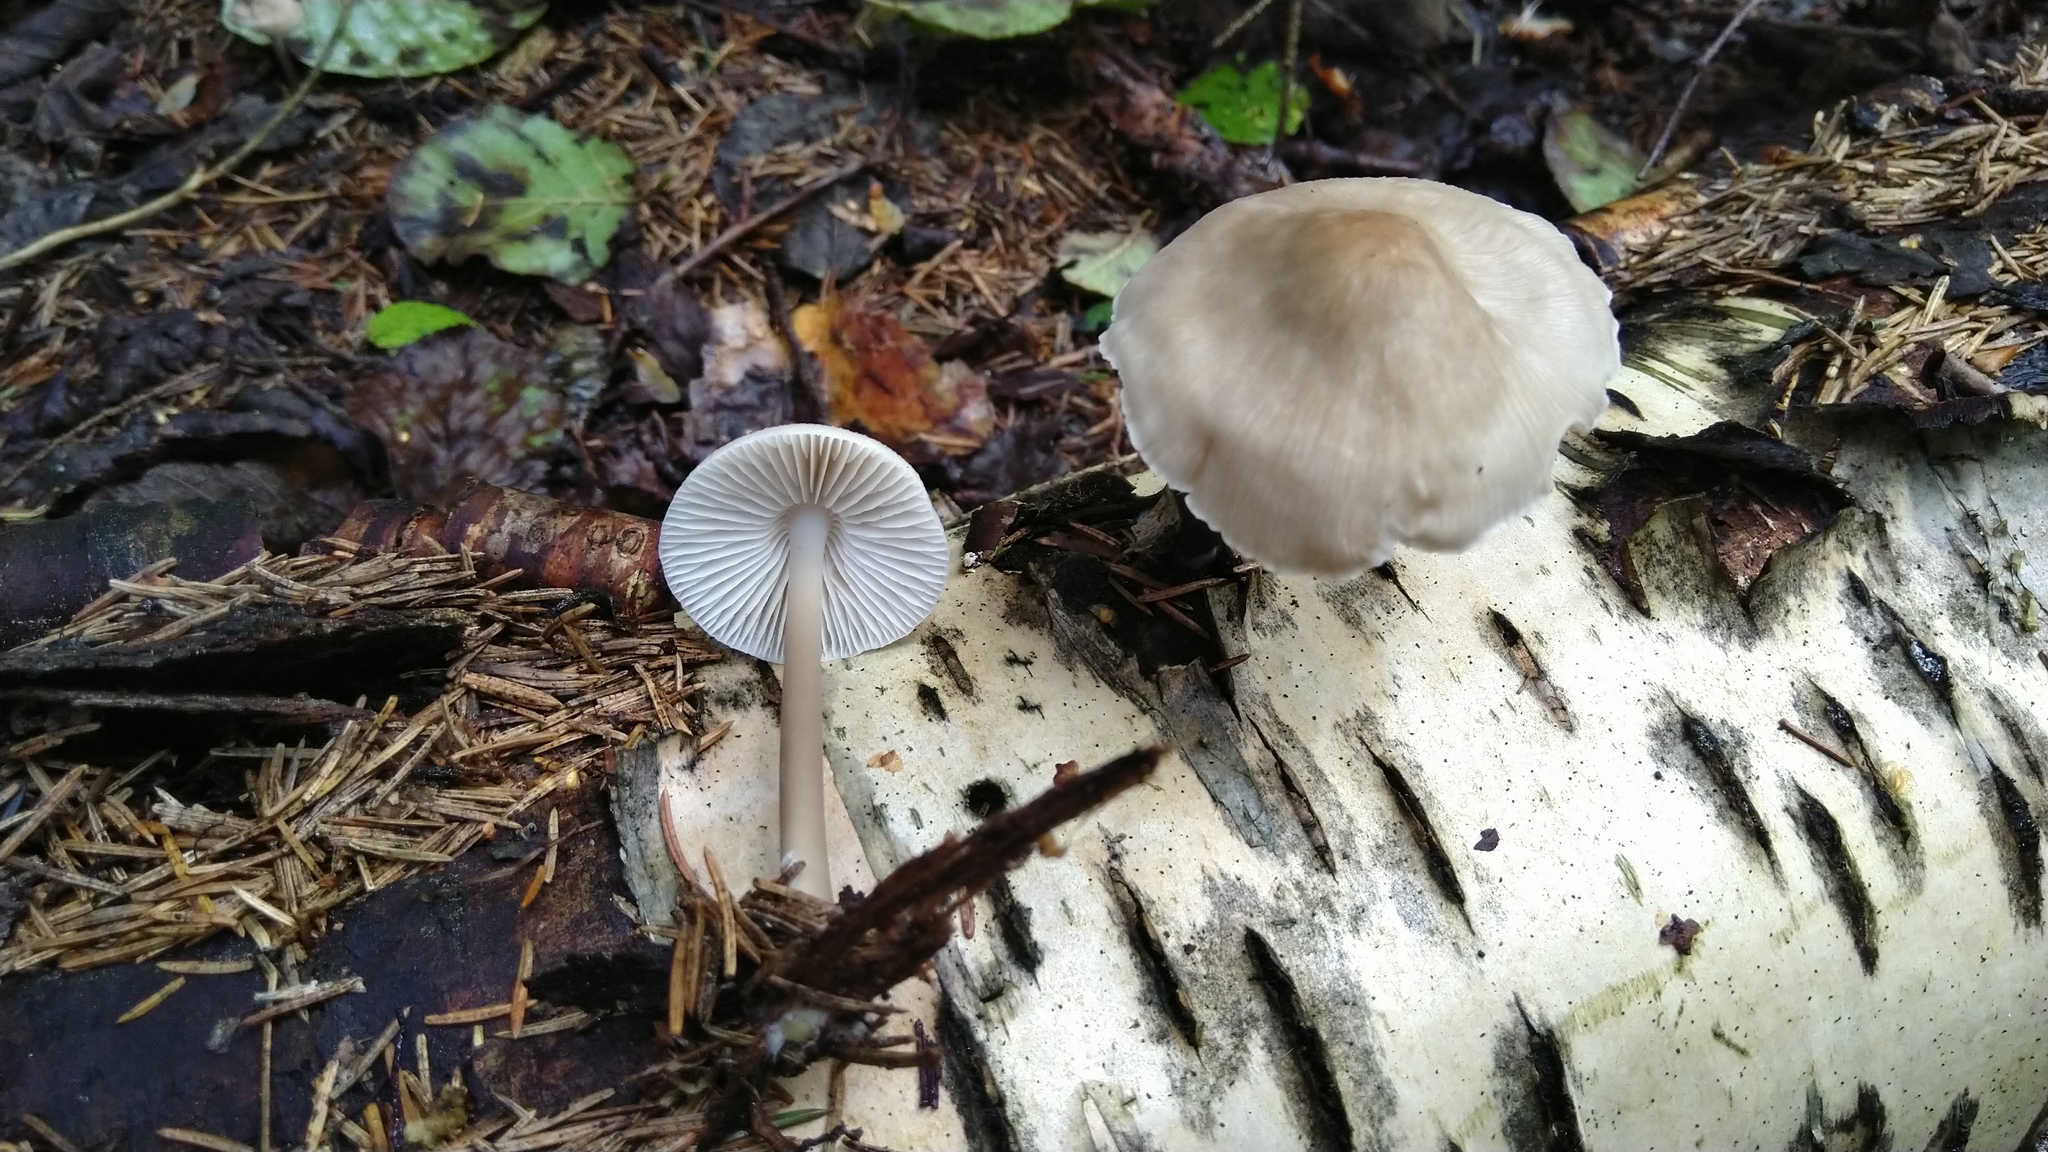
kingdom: Fungi
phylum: Basidiomycota
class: Agaricomycetes
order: Agaricales
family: Mycenaceae
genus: Mycena
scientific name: Mycena galericulata
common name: Bonnet mycena
